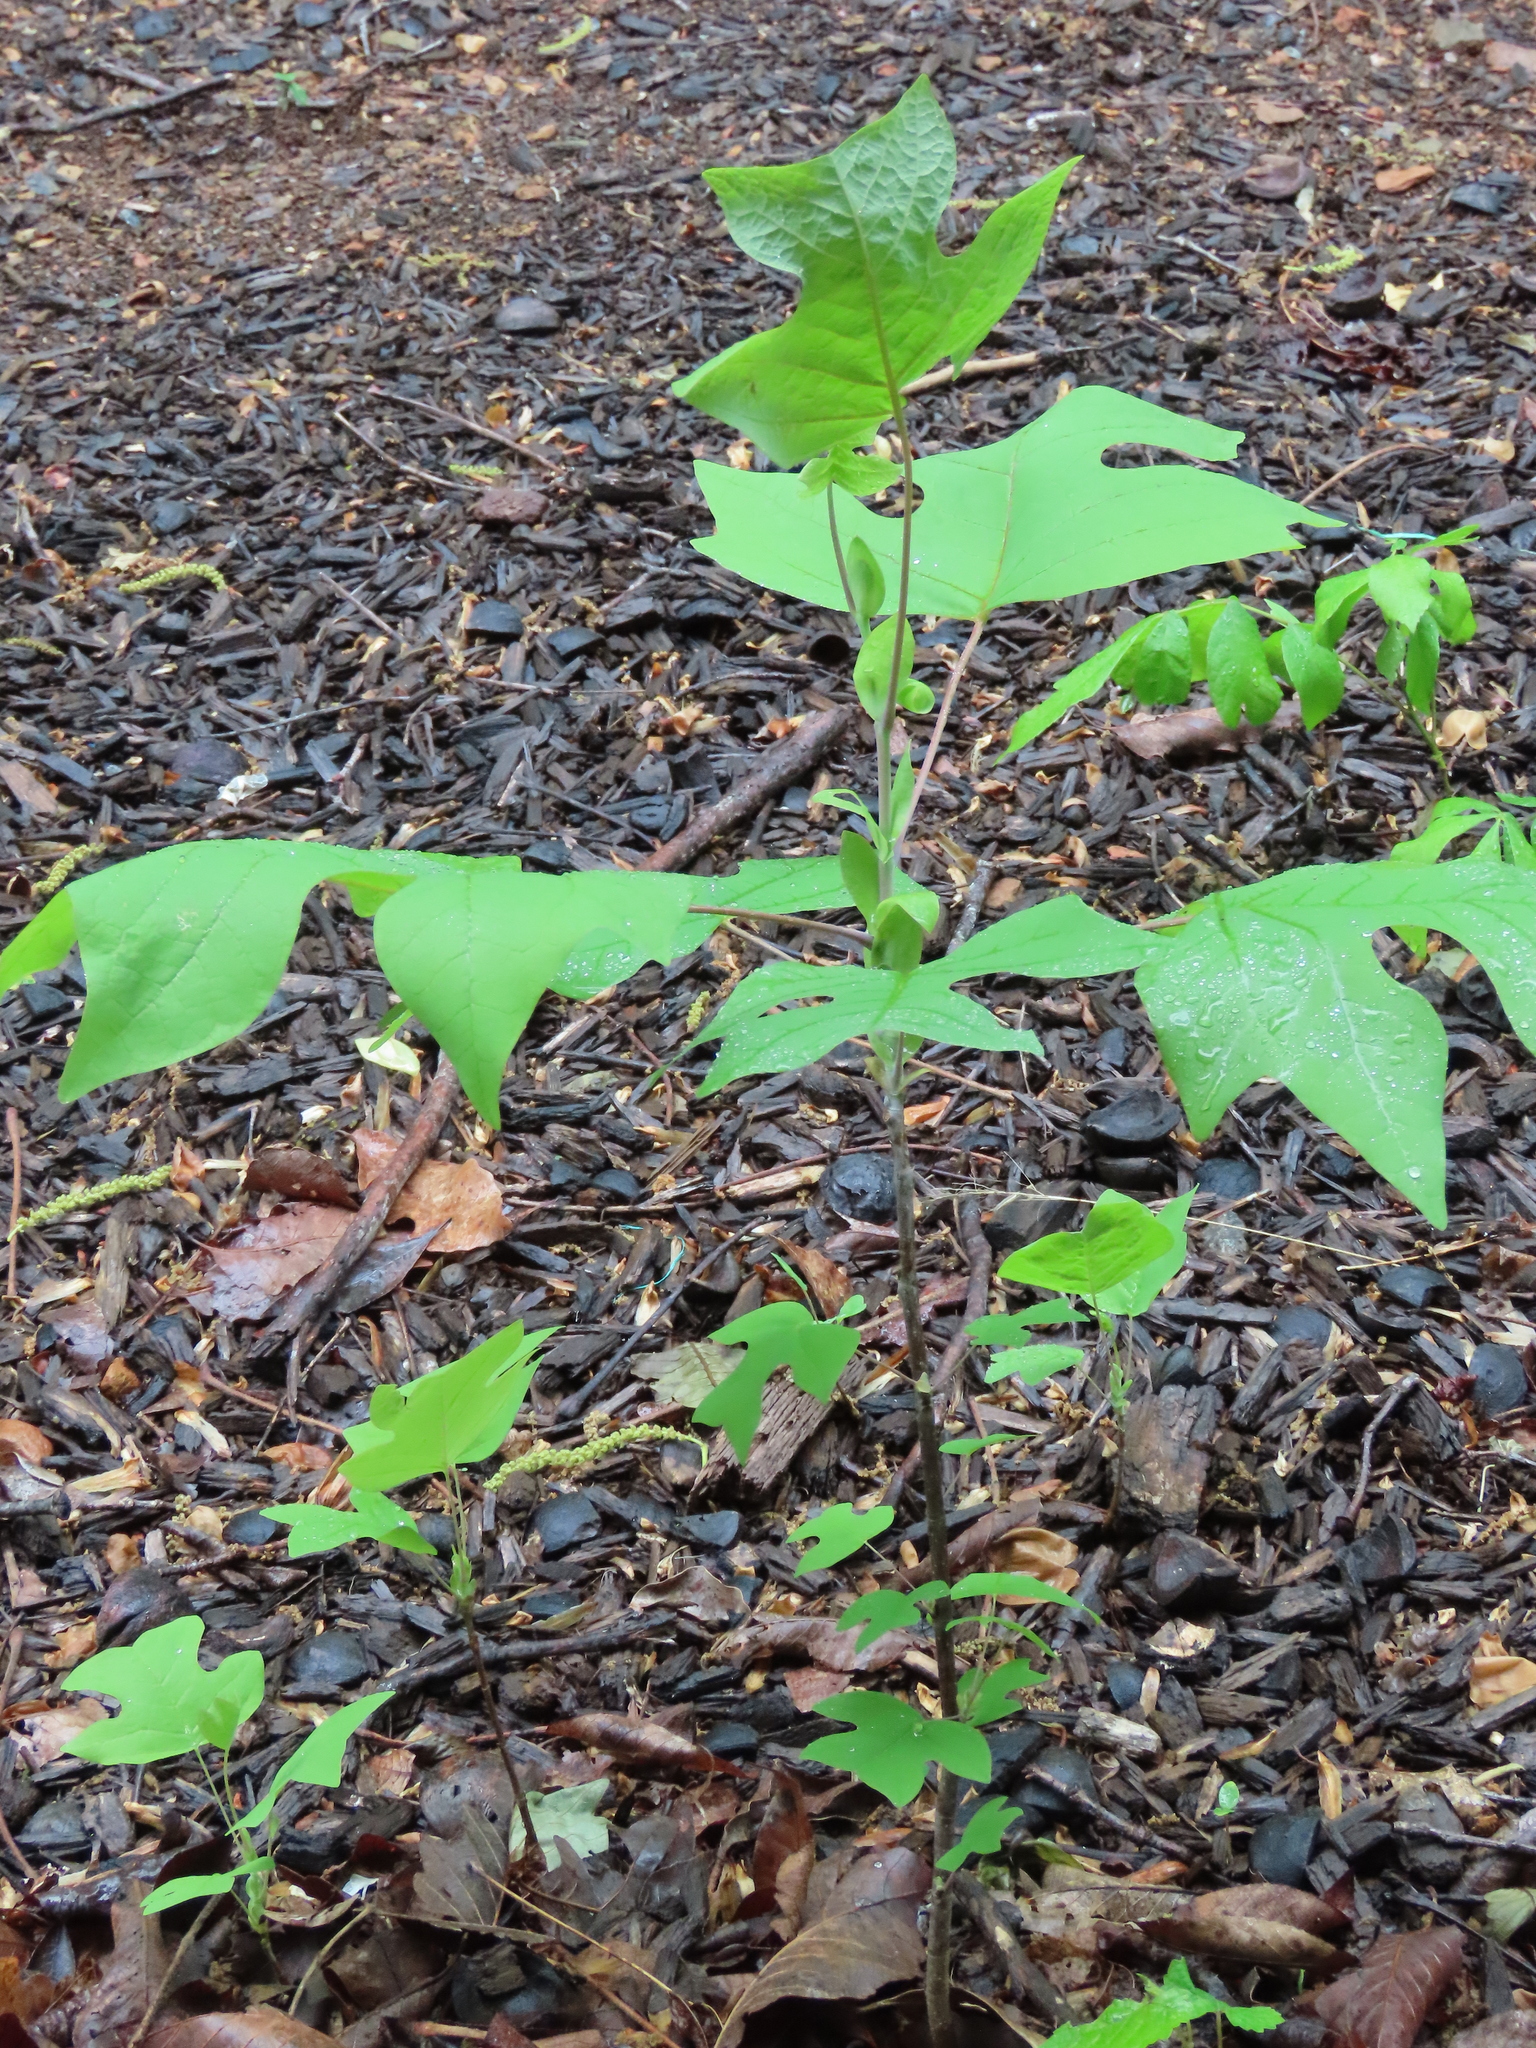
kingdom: Plantae
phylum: Tracheophyta
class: Magnoliopsida
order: Magnoliales
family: Magnoliaceae
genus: Liriodendron
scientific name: Liriodendron tulipifera
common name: Tulip tree
